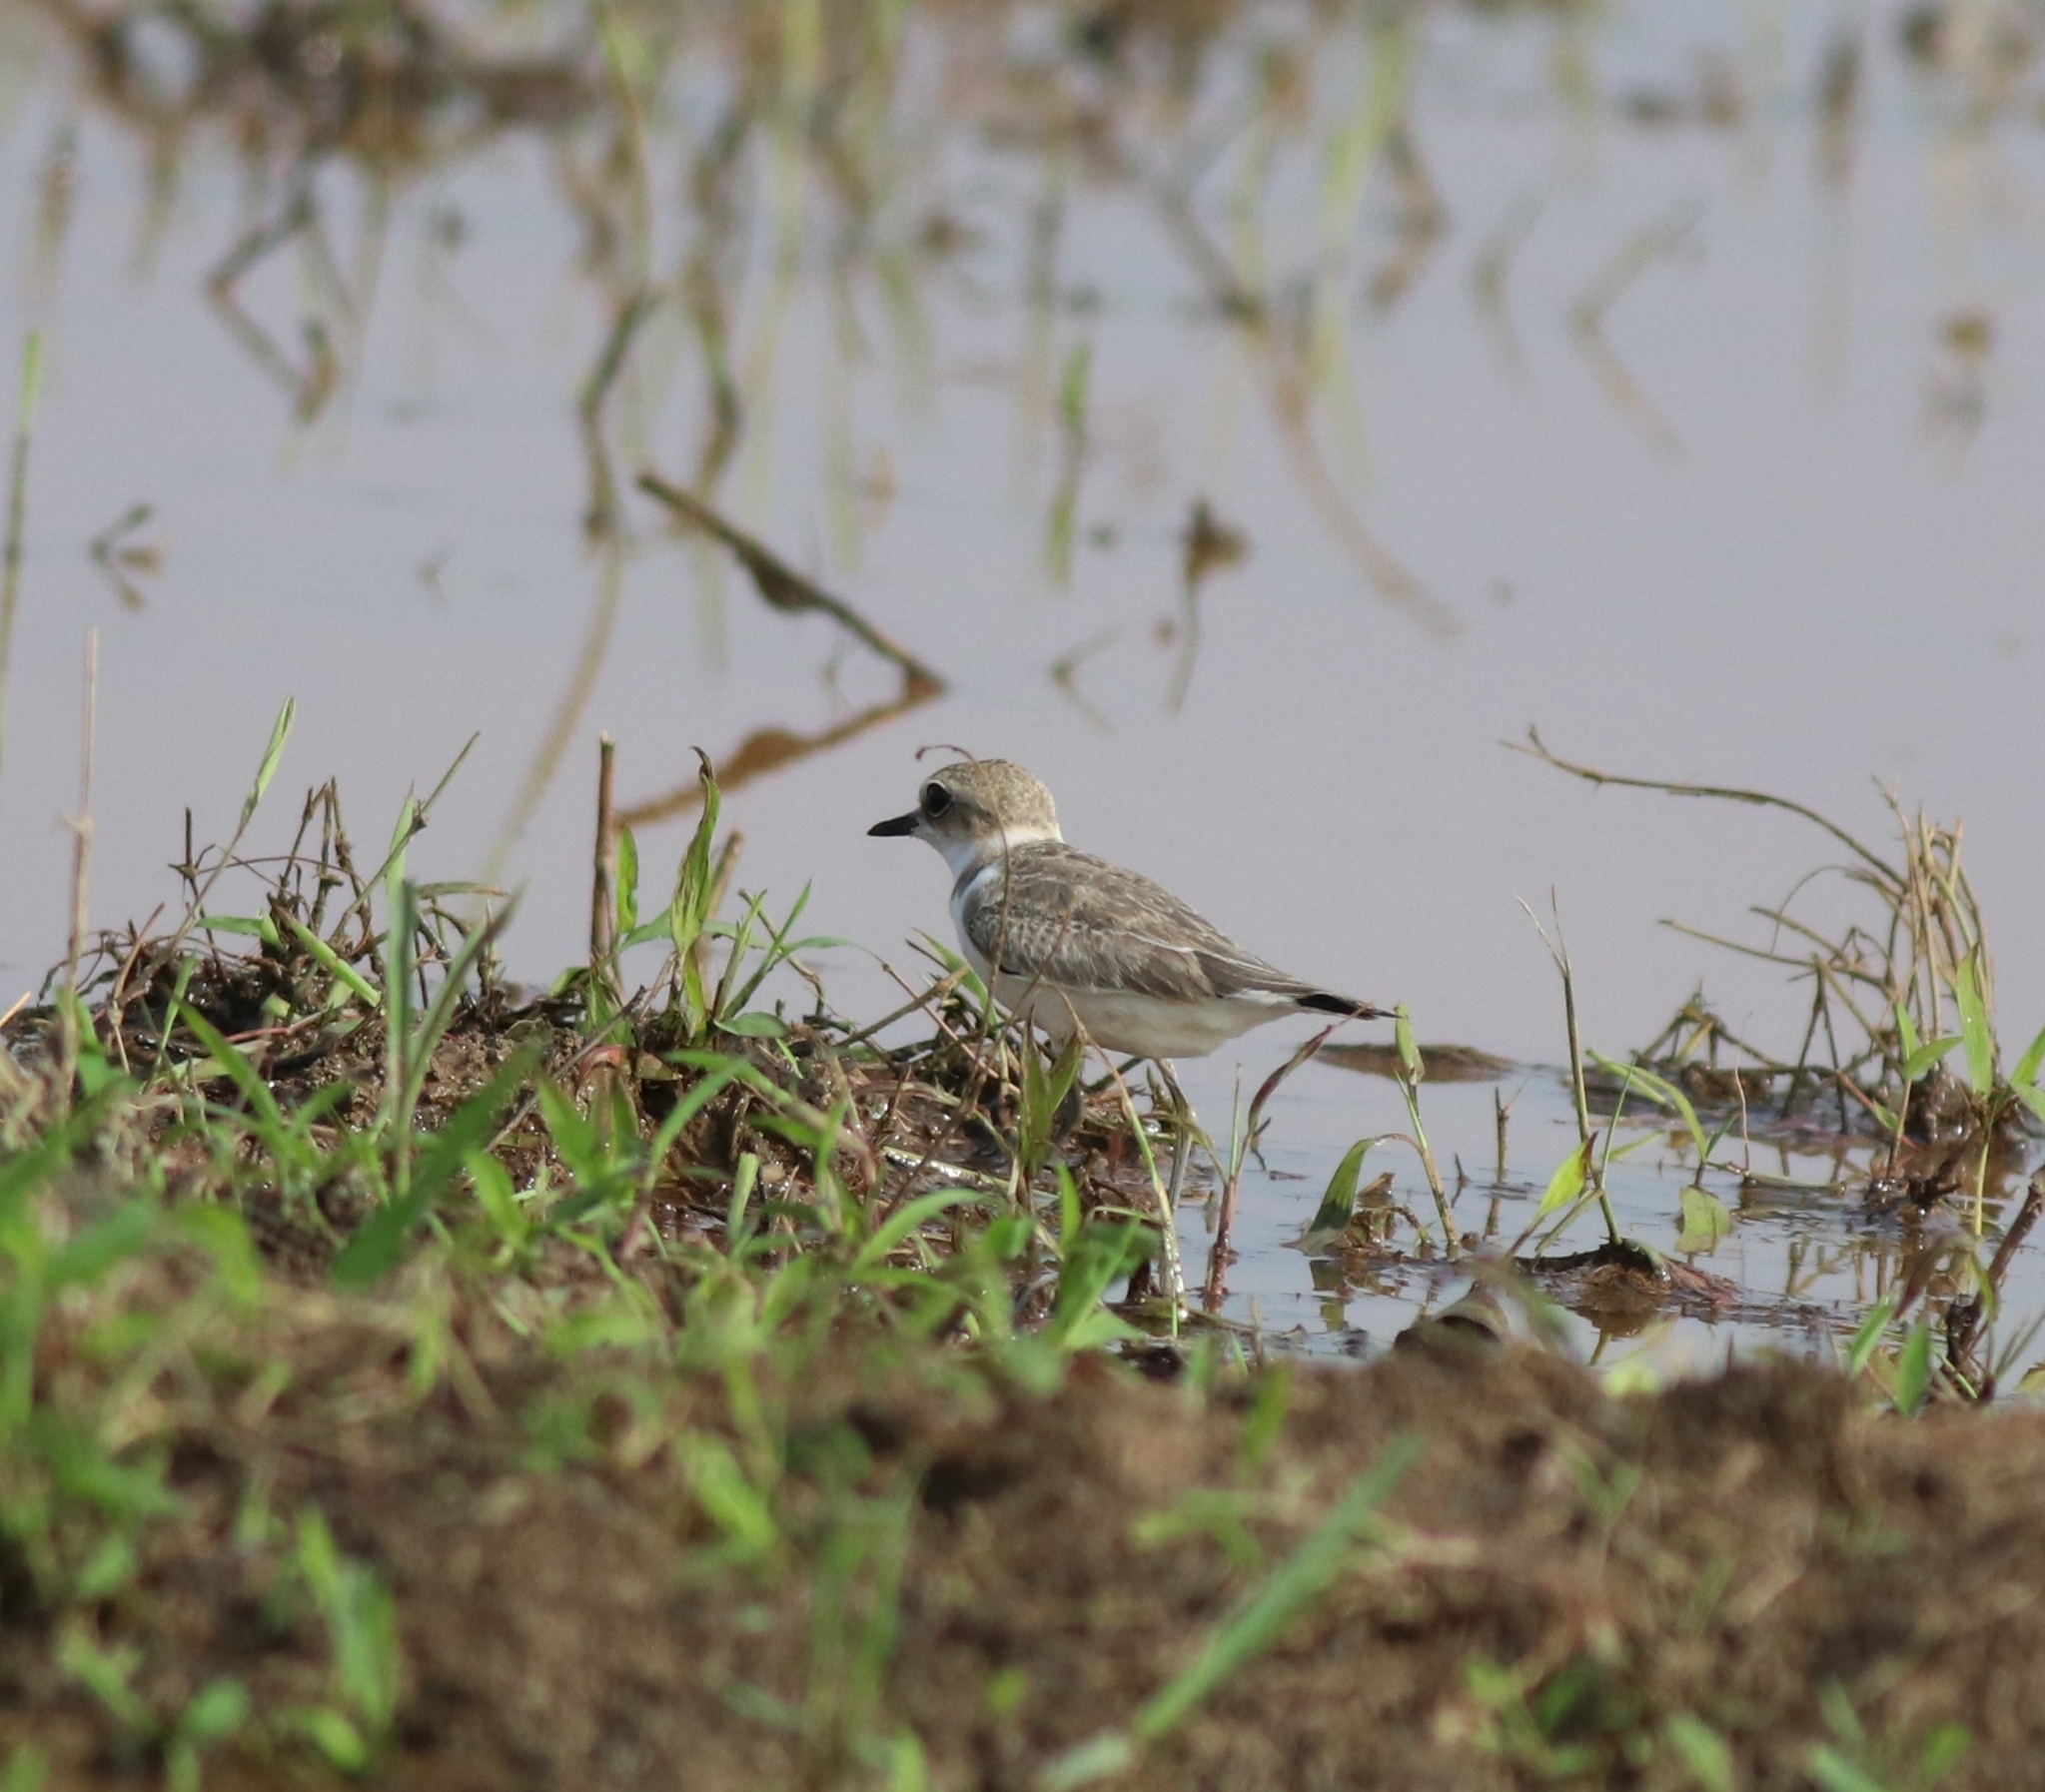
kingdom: Animalia
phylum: Chordata
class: Aves
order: Charadriiformes
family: Charadriidae
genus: Charadrius
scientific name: Charadrius alexandrinus
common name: Kentish plover
